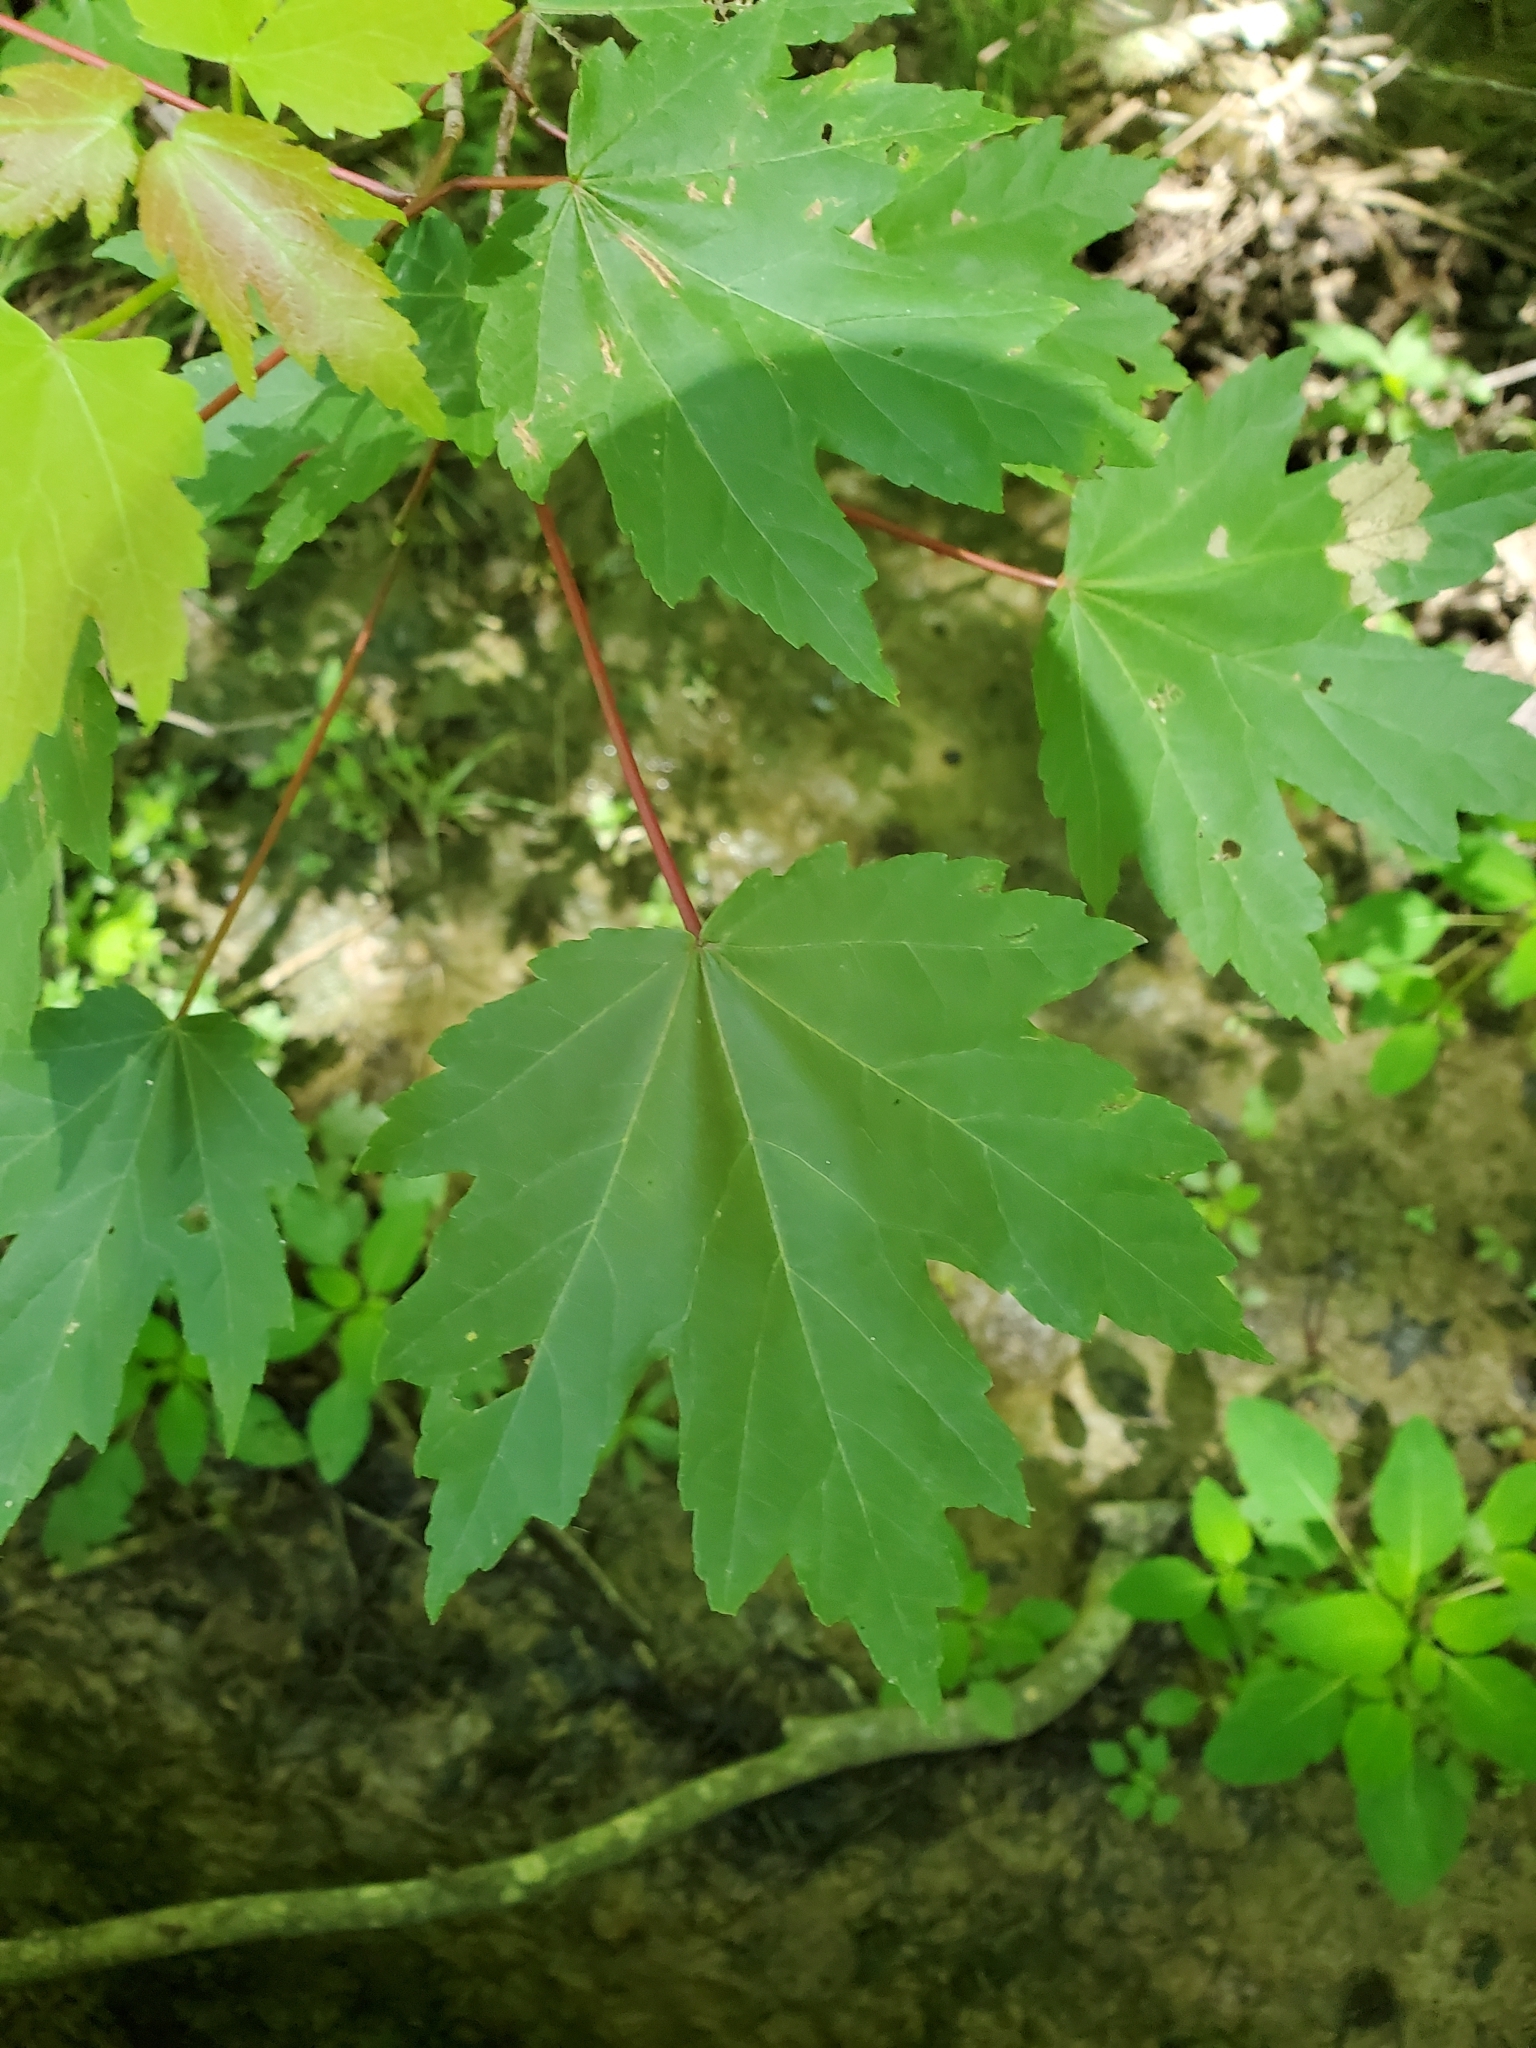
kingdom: Plantae
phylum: Tracheophyta
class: Magnoliopsida
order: Sapindales
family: Sapindaceae
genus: Acer
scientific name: Acer rubrum
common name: Red maple
